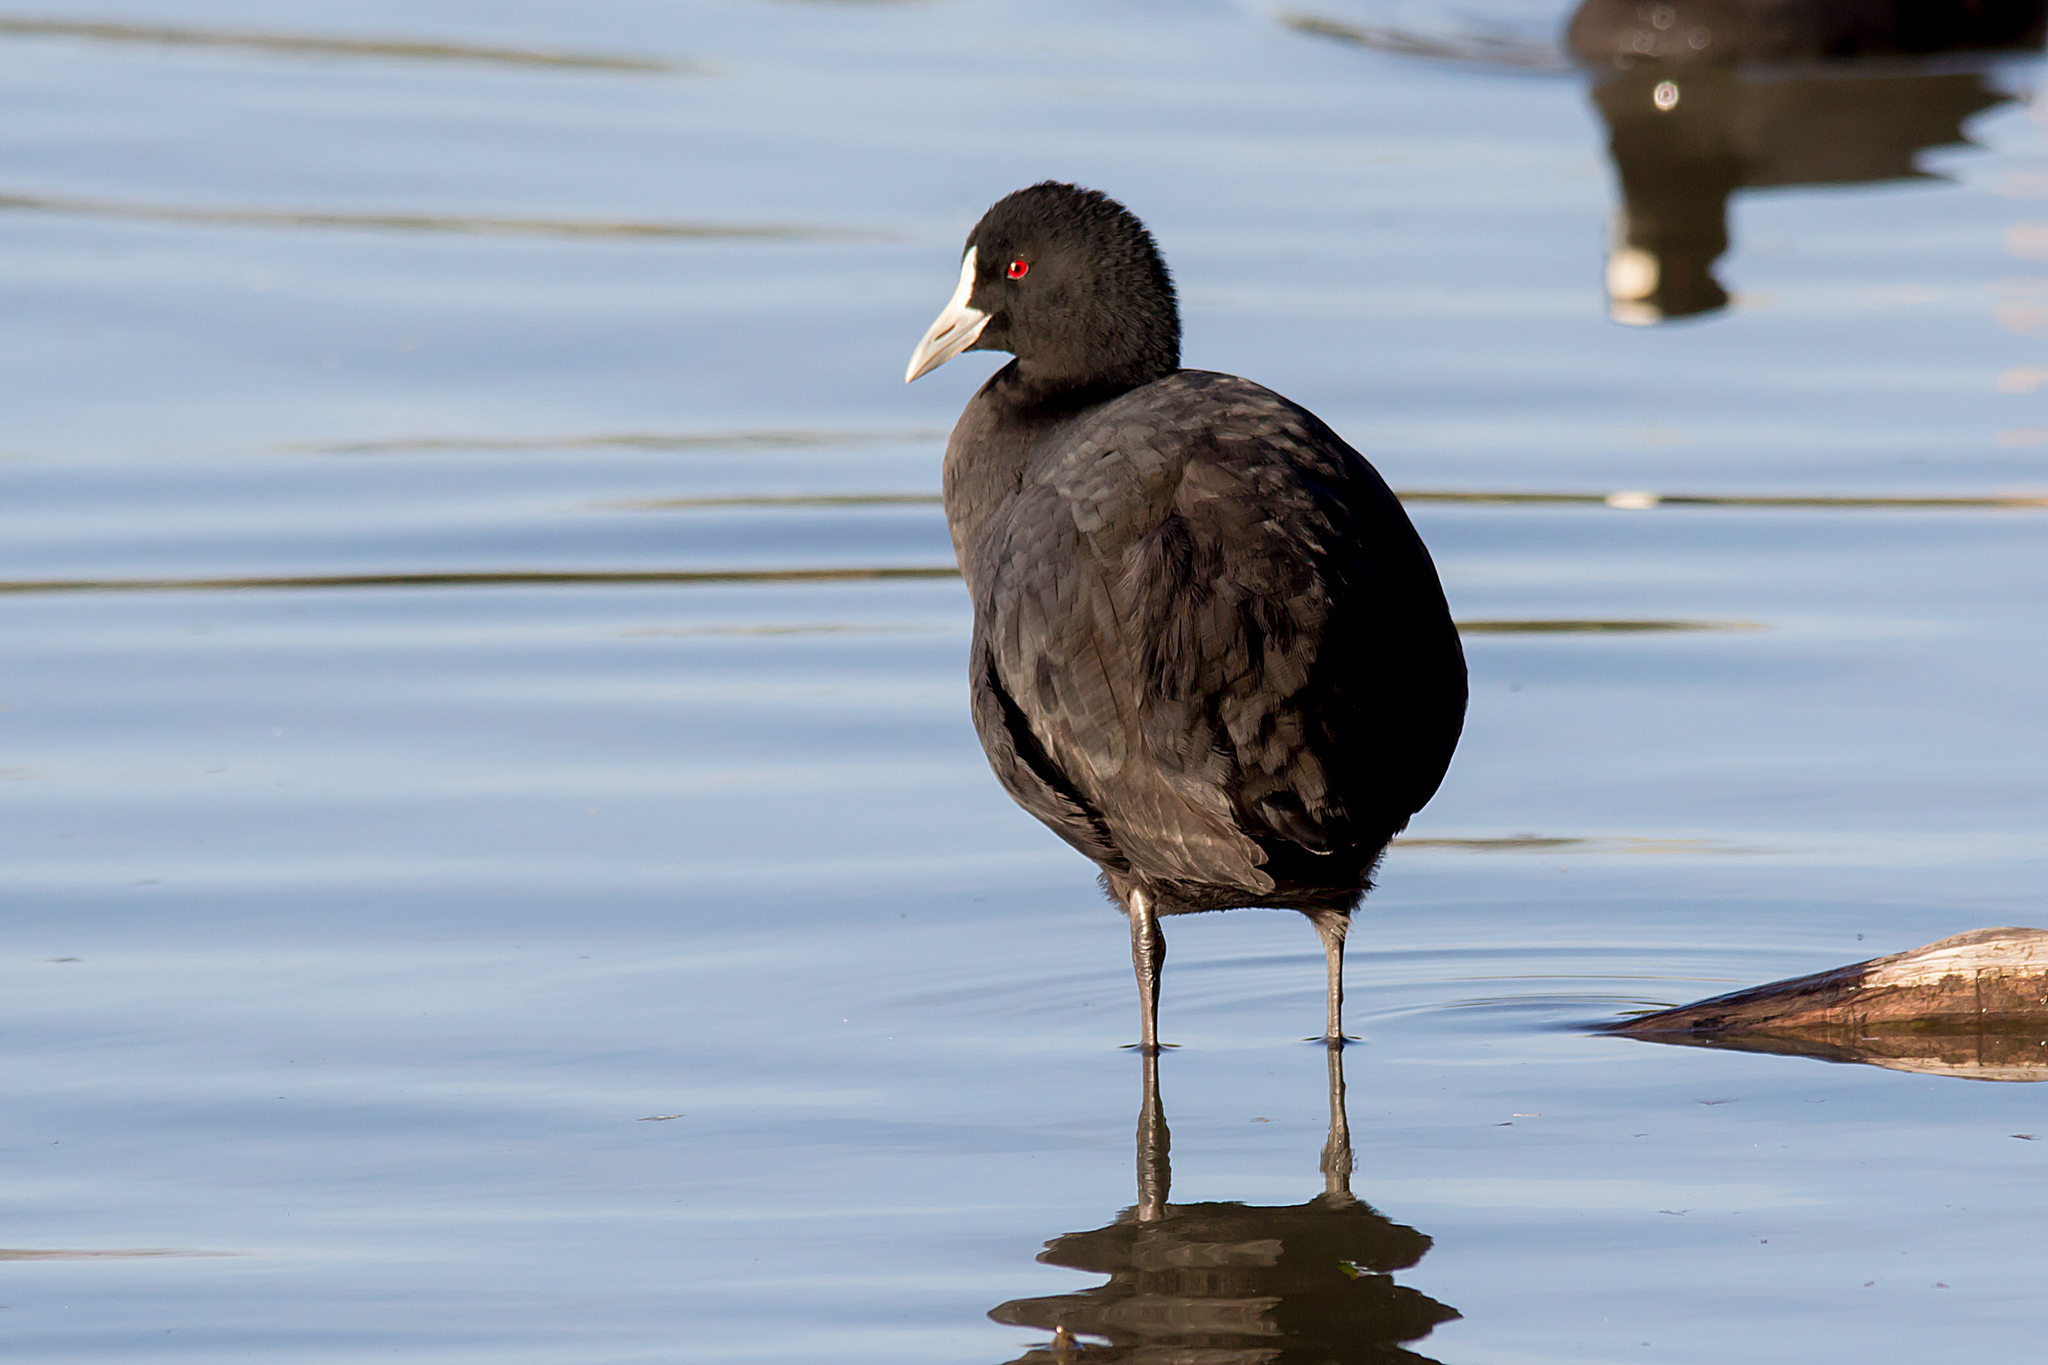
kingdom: Animalia
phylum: Chordata
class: Aves
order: Gruiformes
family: Rallidae
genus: Fulica
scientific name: Fulica atra
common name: Eurasian coot
